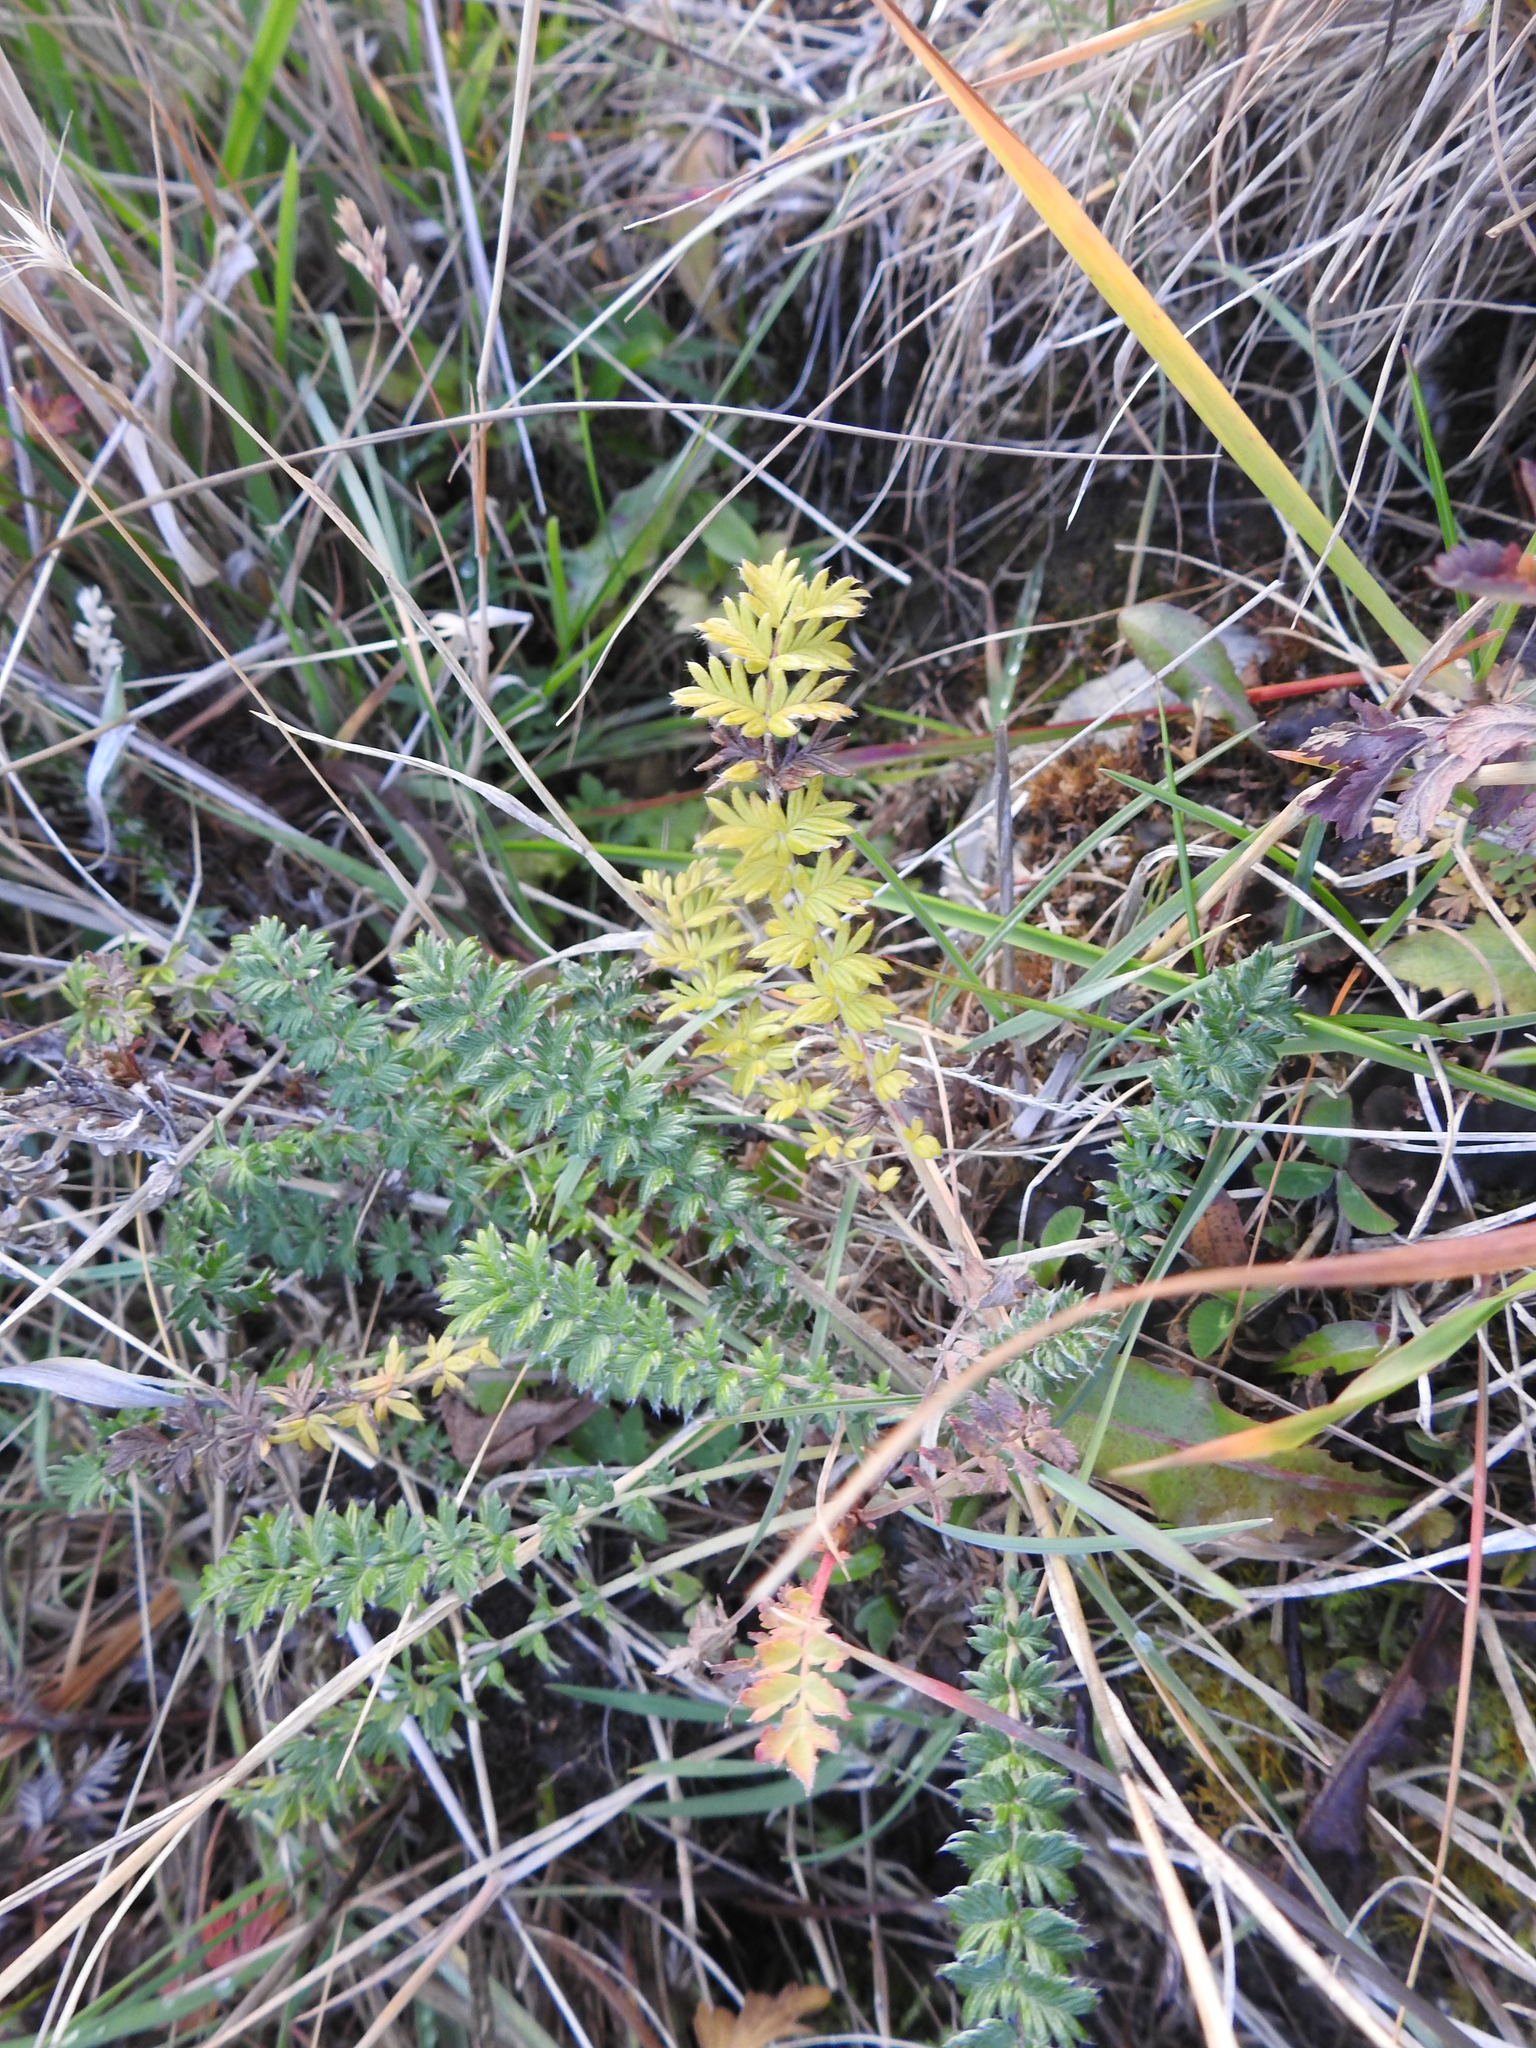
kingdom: Plantae
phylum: Tracheophyta
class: Magnoliopsida
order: Rosales
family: Rosaceae
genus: Acaena
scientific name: Acaena pinnatifida
